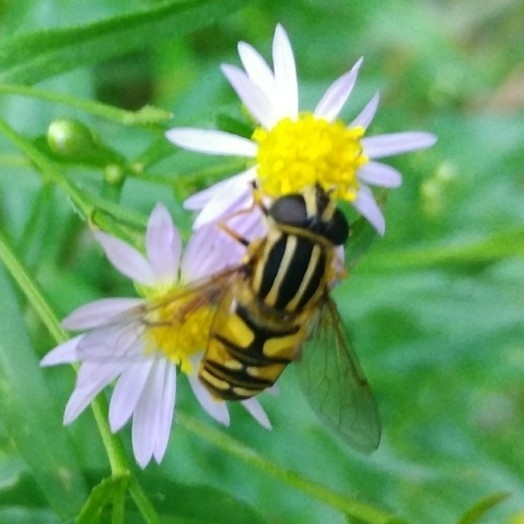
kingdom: Animalia
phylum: Arthropoda
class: Insecta
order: Diptera
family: Syrphidae
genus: Helophilus
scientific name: Helophilus pendulus
